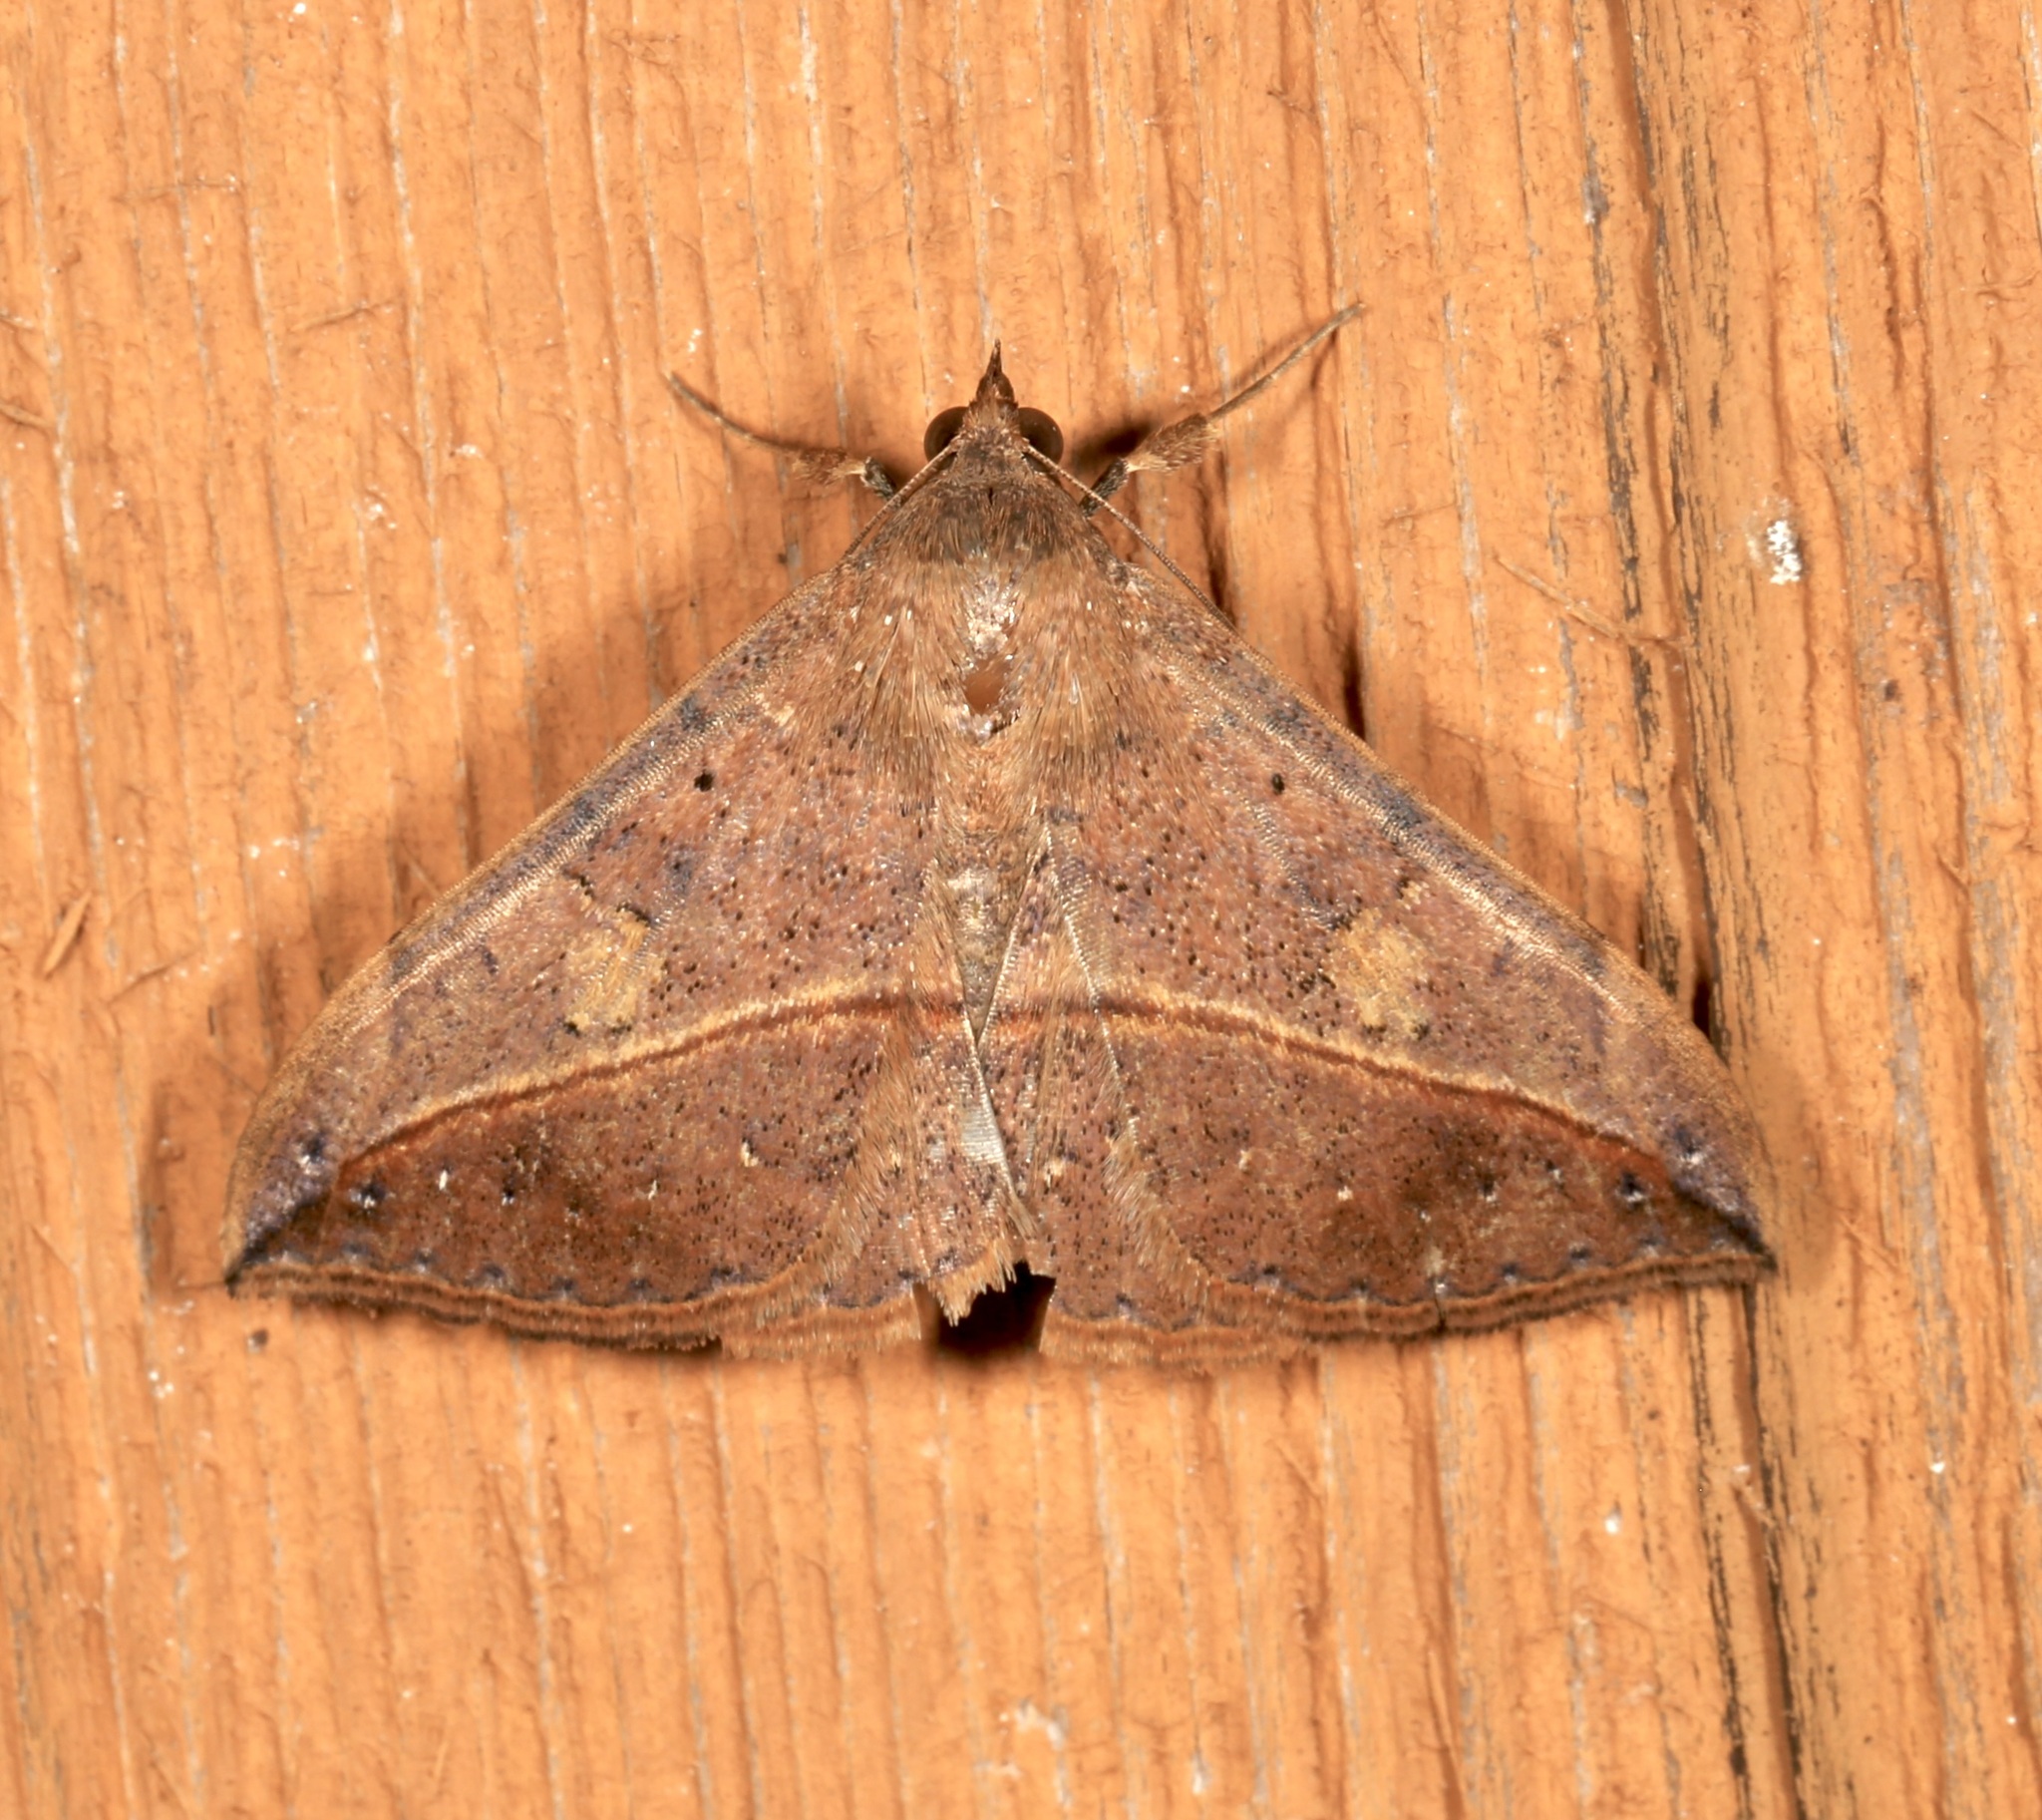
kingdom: Animalia
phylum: Arthropoda
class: Insecta
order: Lepidoptera
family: Erebidae
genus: Anticarsia
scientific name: Anticarsia gemmatalis
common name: Cutworm moth
